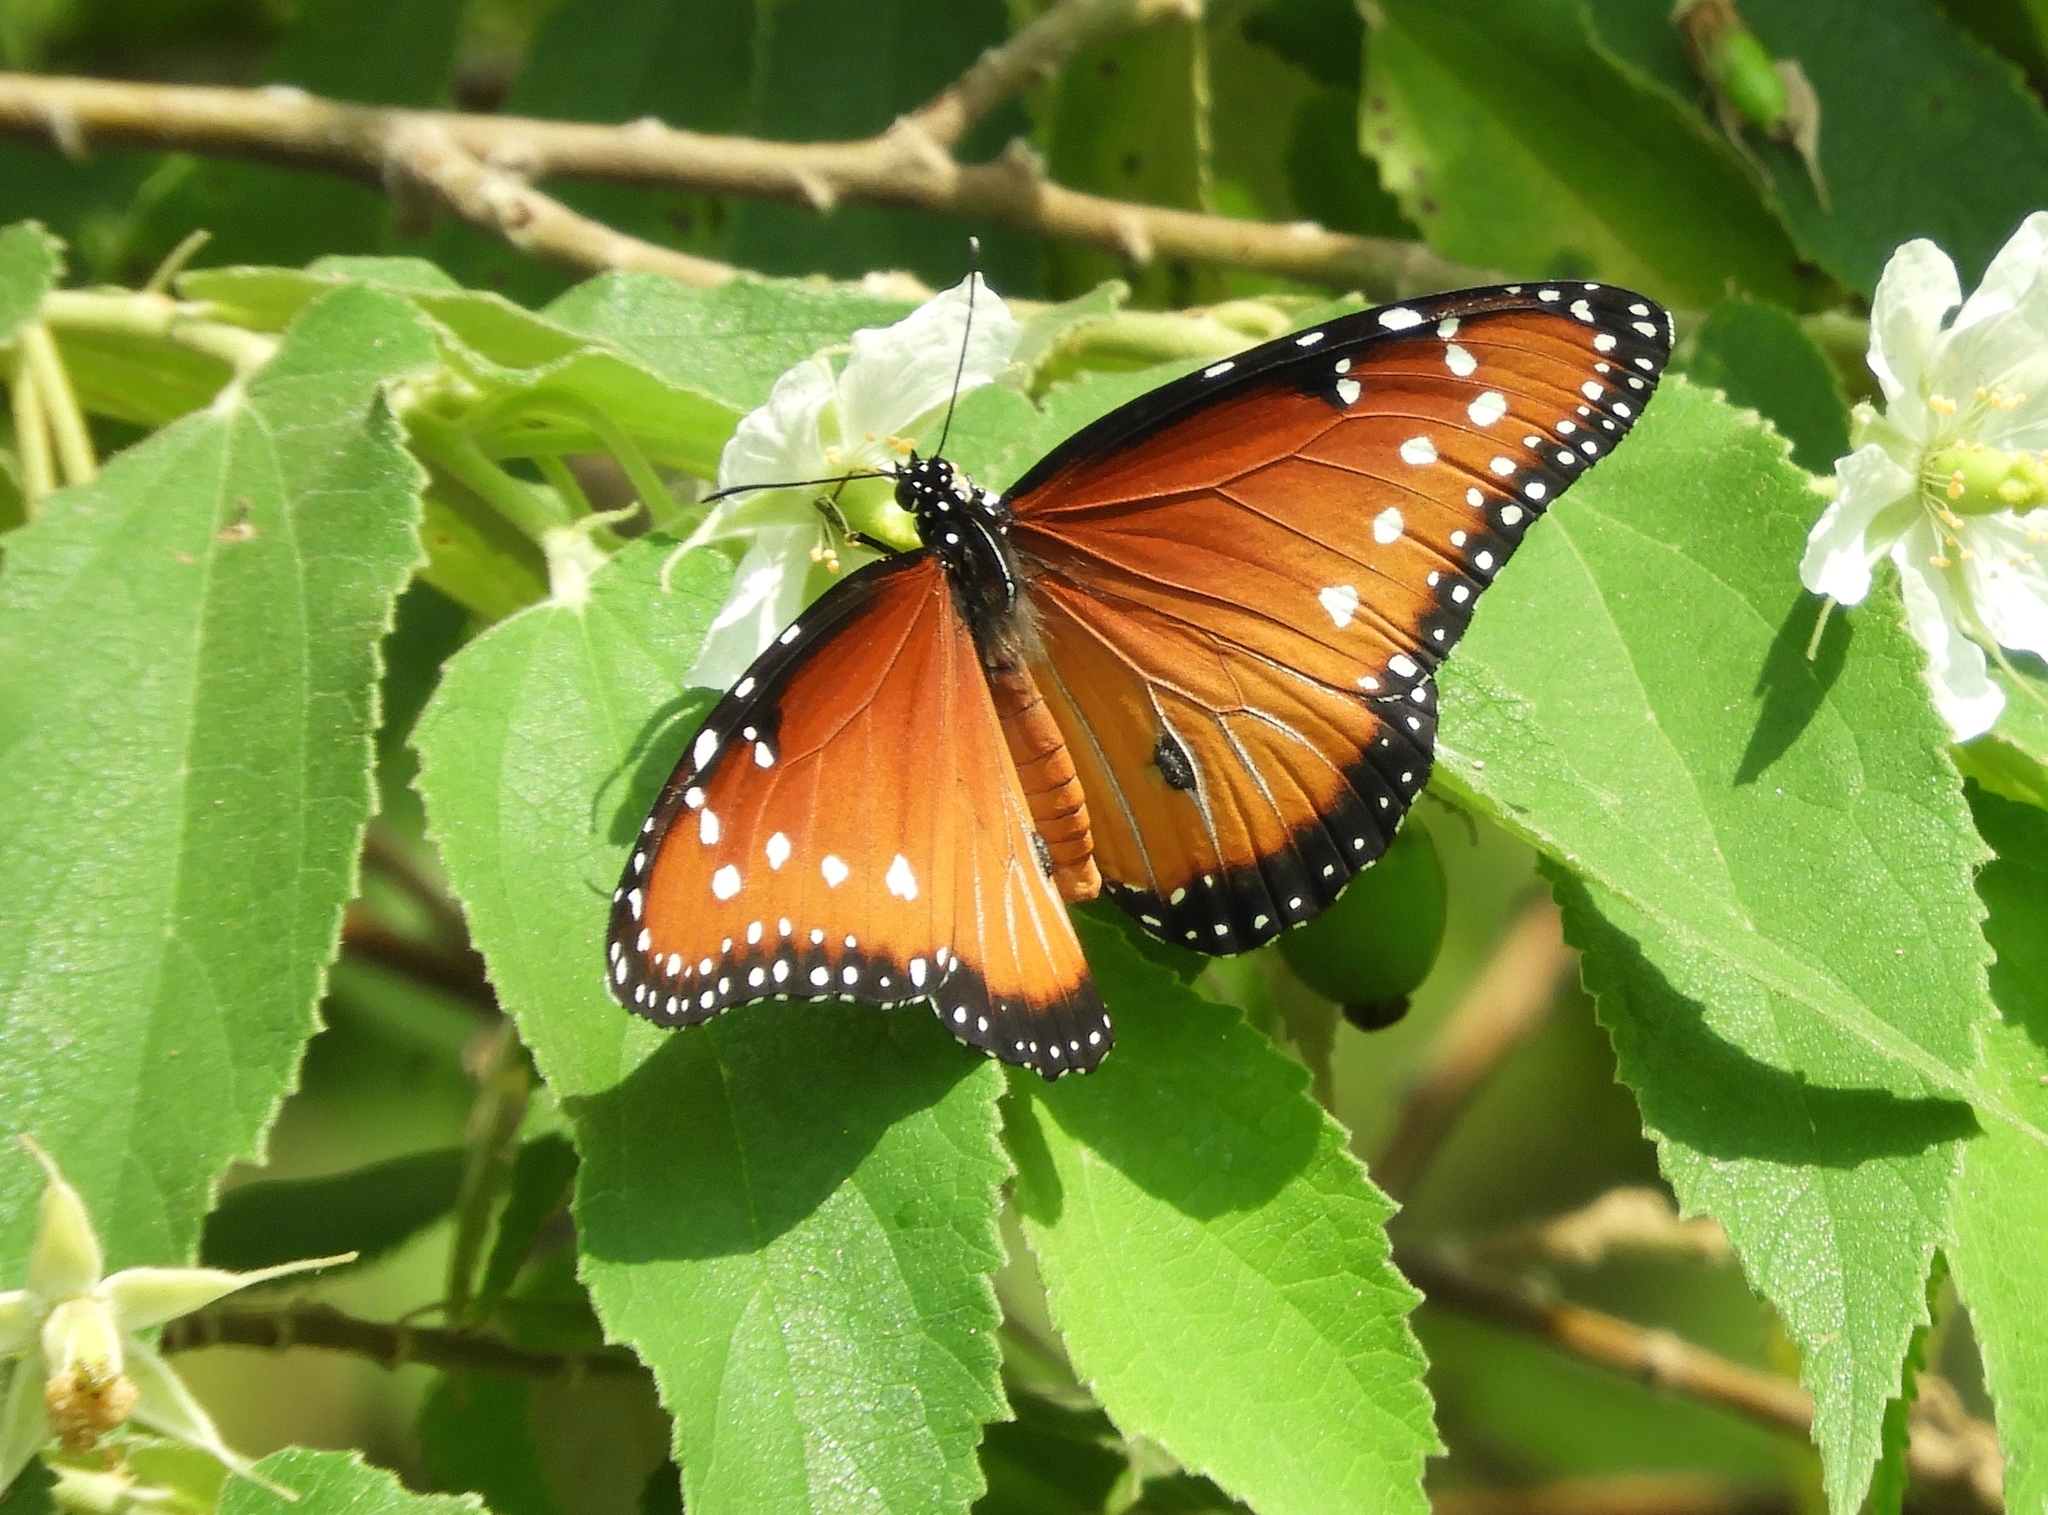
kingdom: Animalia
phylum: Arthropoda
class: Insecta
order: Lepidoptera
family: Nymphalidae
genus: Danaus
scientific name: Danaus gilippus
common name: Queen
